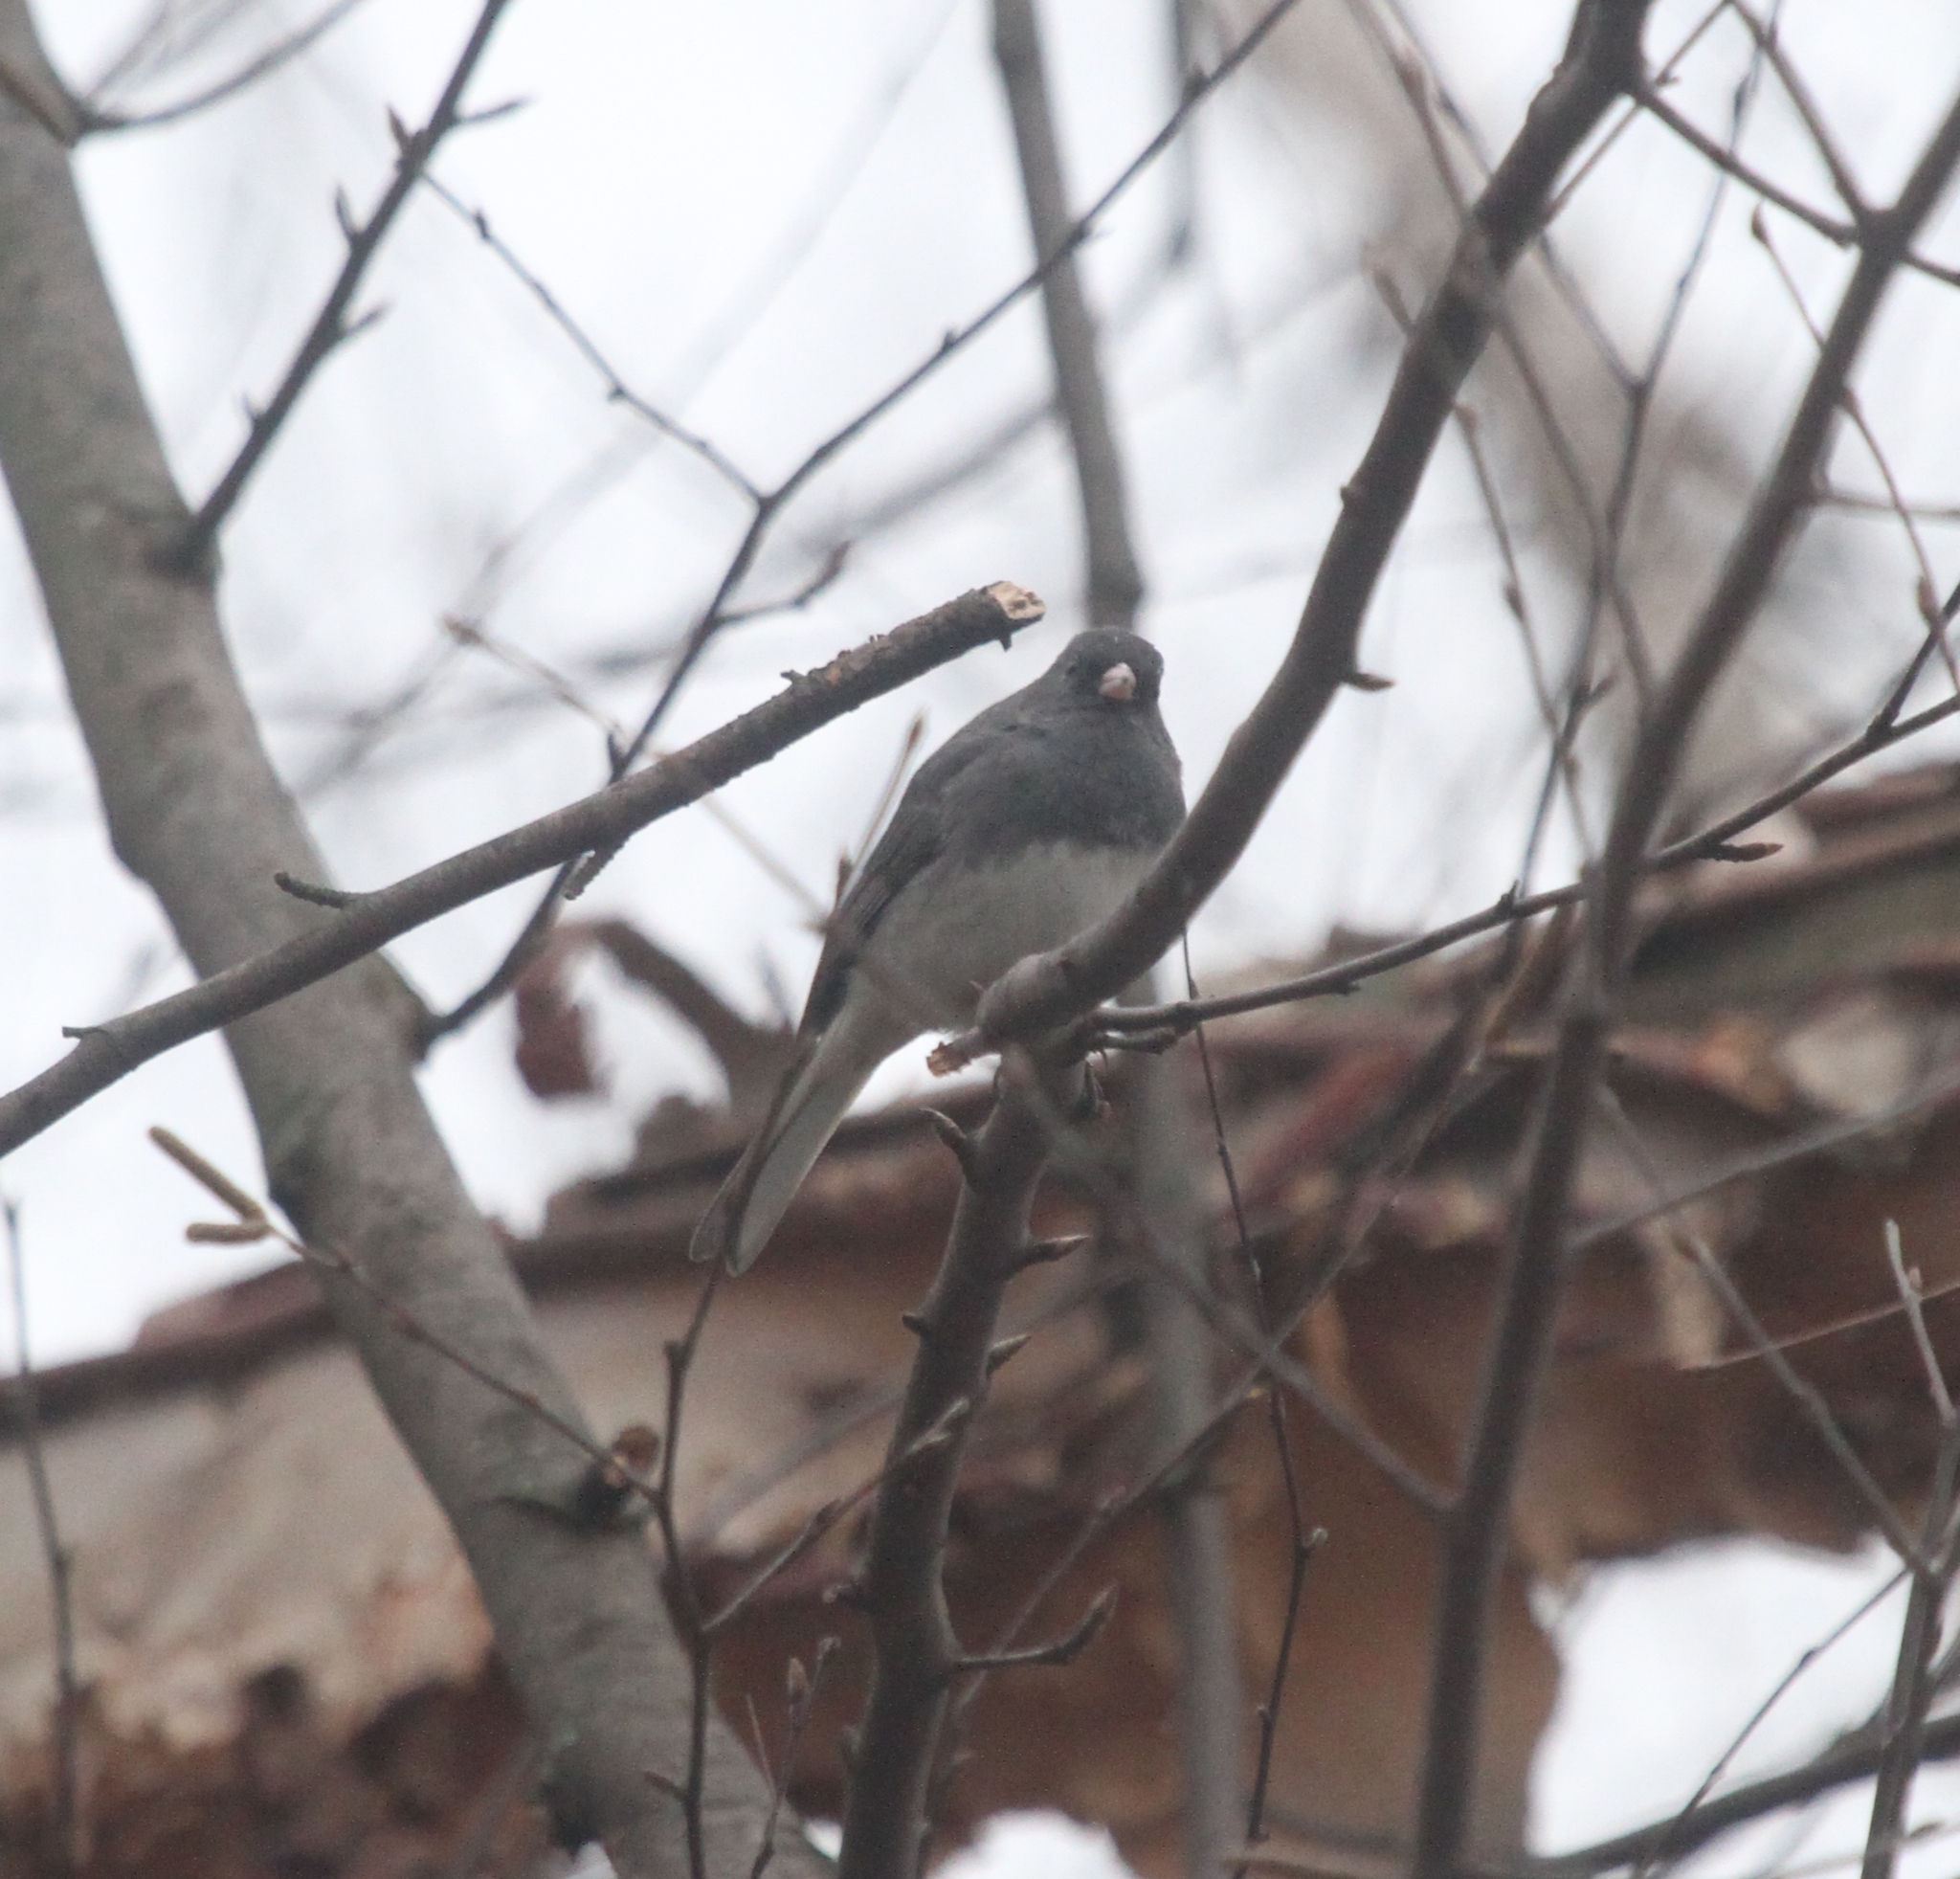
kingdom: Animalia
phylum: Chordata
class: Aves
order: Passeriformes
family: Passerellidae
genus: Junco
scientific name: Junco hyemalis
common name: Dark-eyed junco
